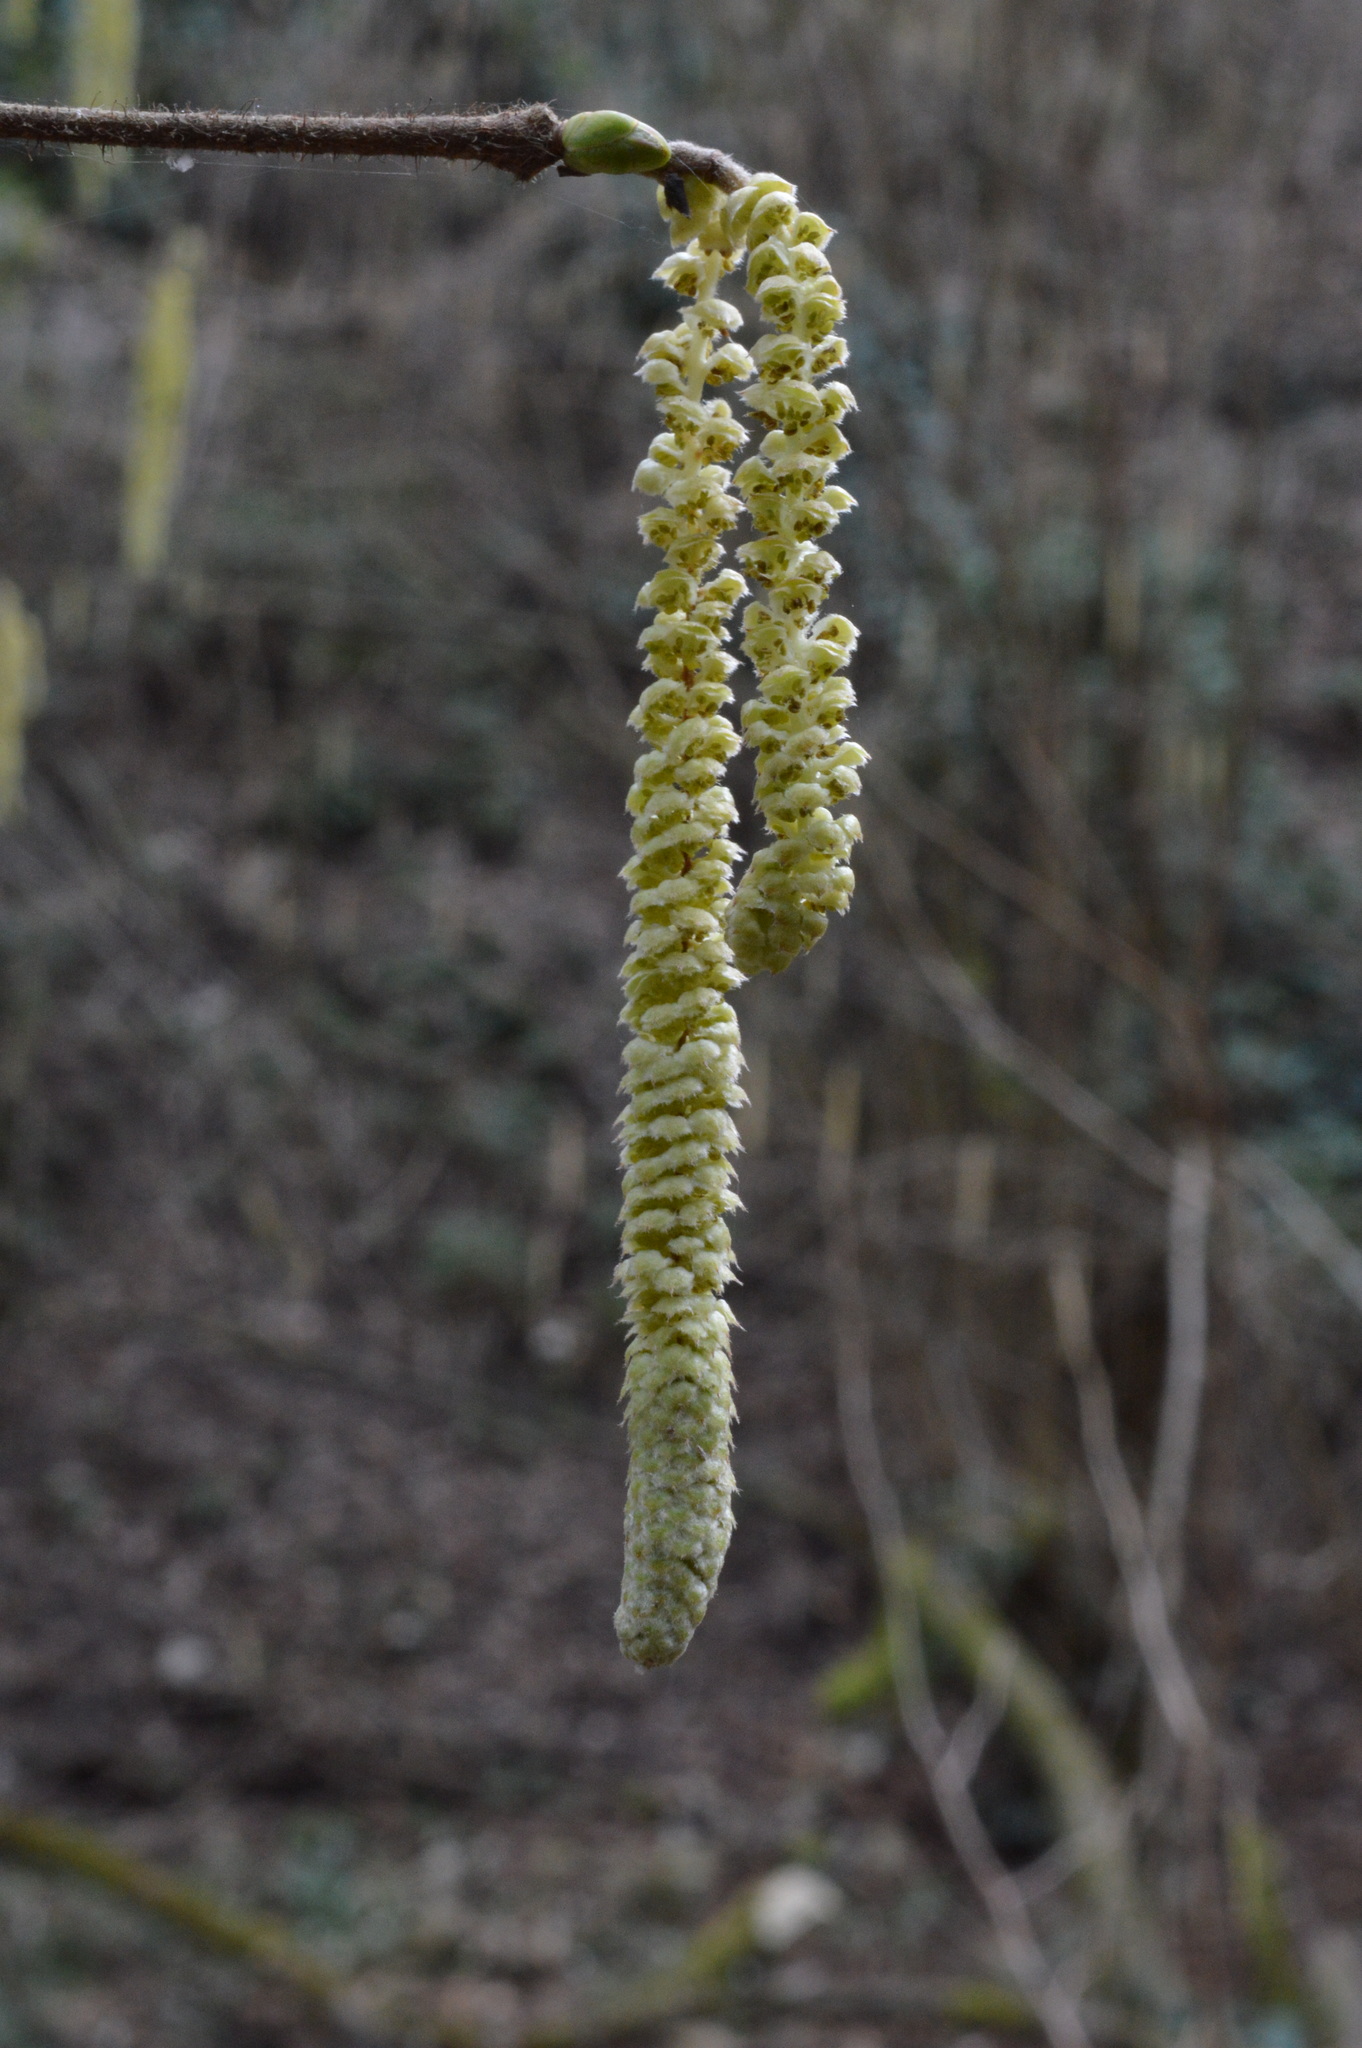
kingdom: Plantae
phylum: Tracheophyta
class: Magnoliopsida
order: Fagales
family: Betulaceae
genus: Corylus
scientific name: Corylus avellana
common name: European hazel
